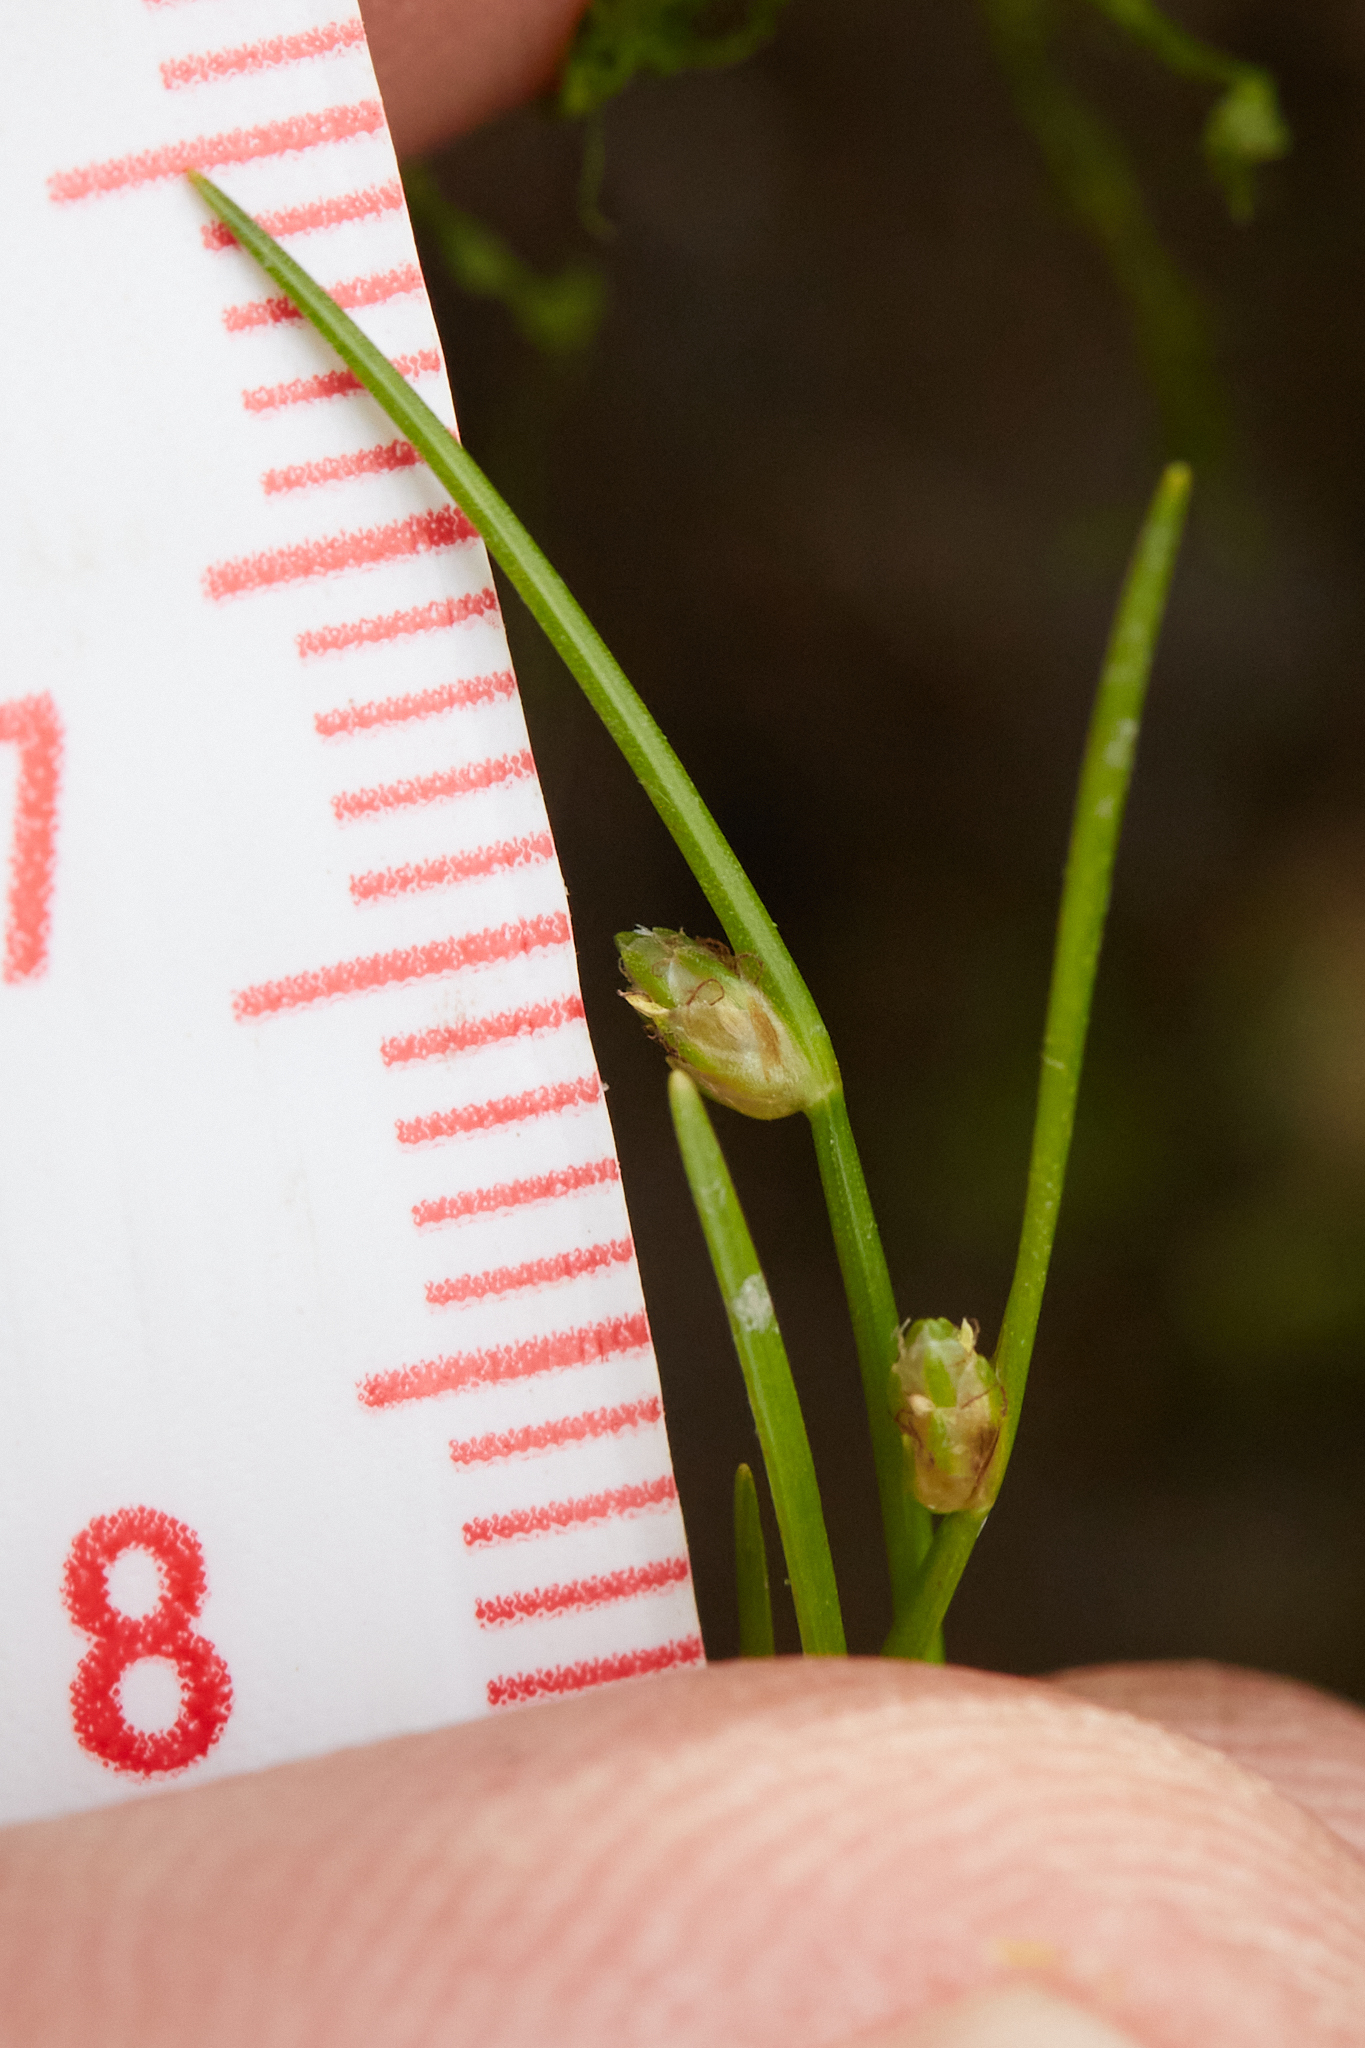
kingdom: Plantae
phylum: Tracheophyta
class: Liliopsida
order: Poales
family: Cyperaceae
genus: Isolepis
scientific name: Isolepis cernua
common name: Slender club-rush
